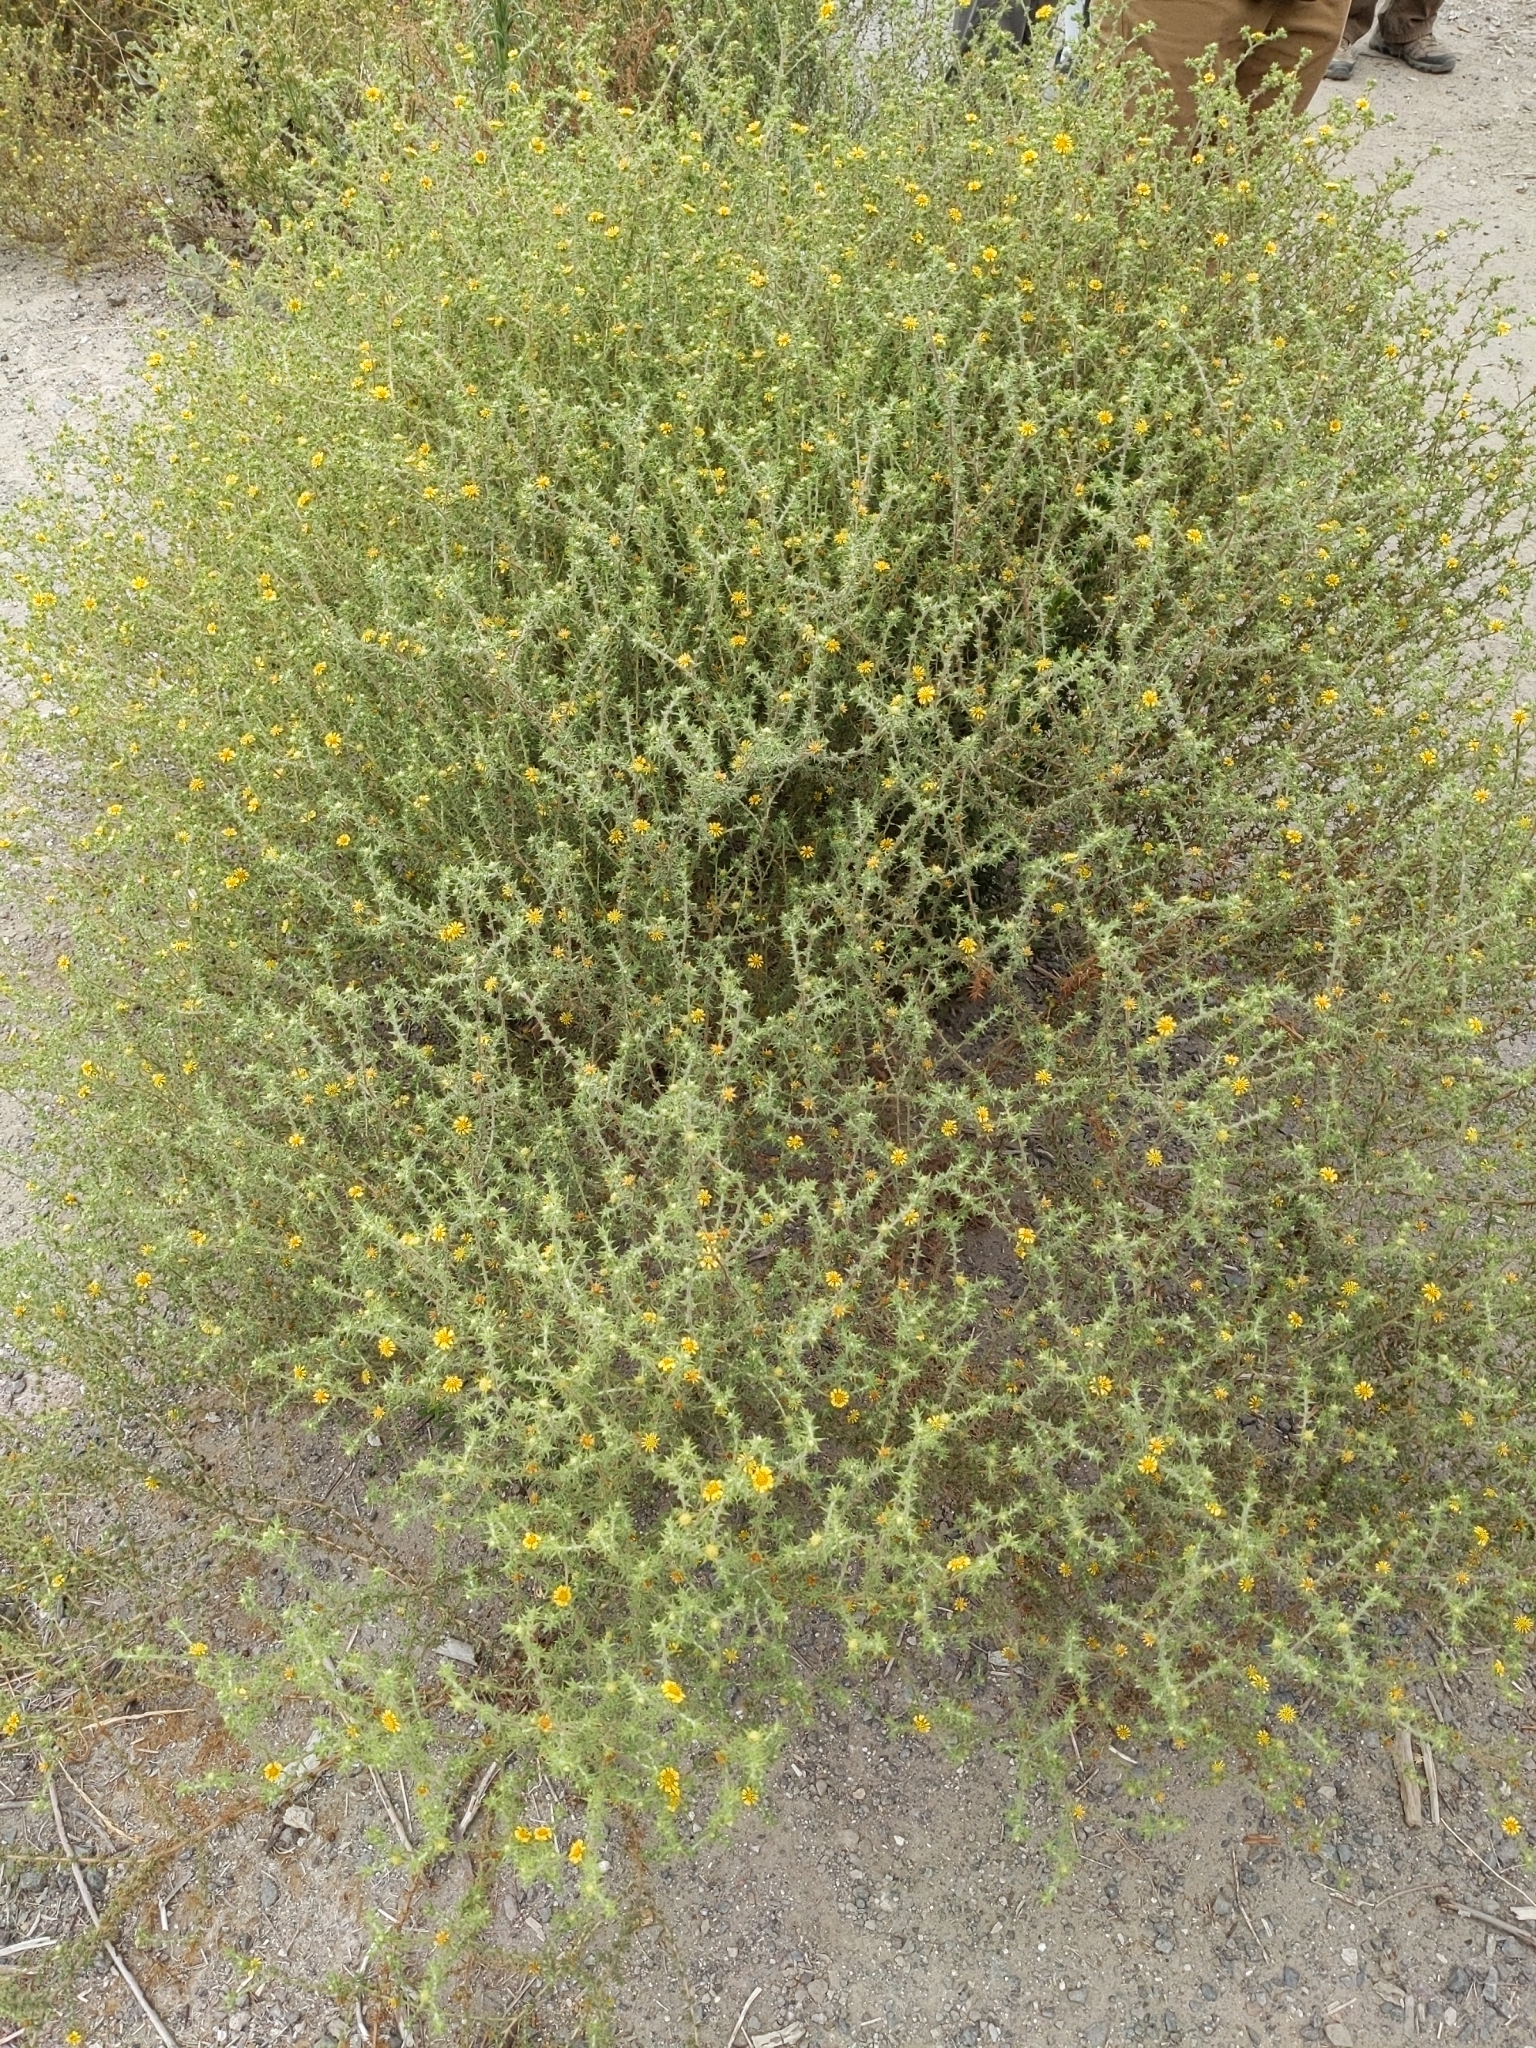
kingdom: Plantae
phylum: Tracheophyta
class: Magnoliopsida
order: Asterales
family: Asteraceae
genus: Centromadia
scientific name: Centromadia parryi
